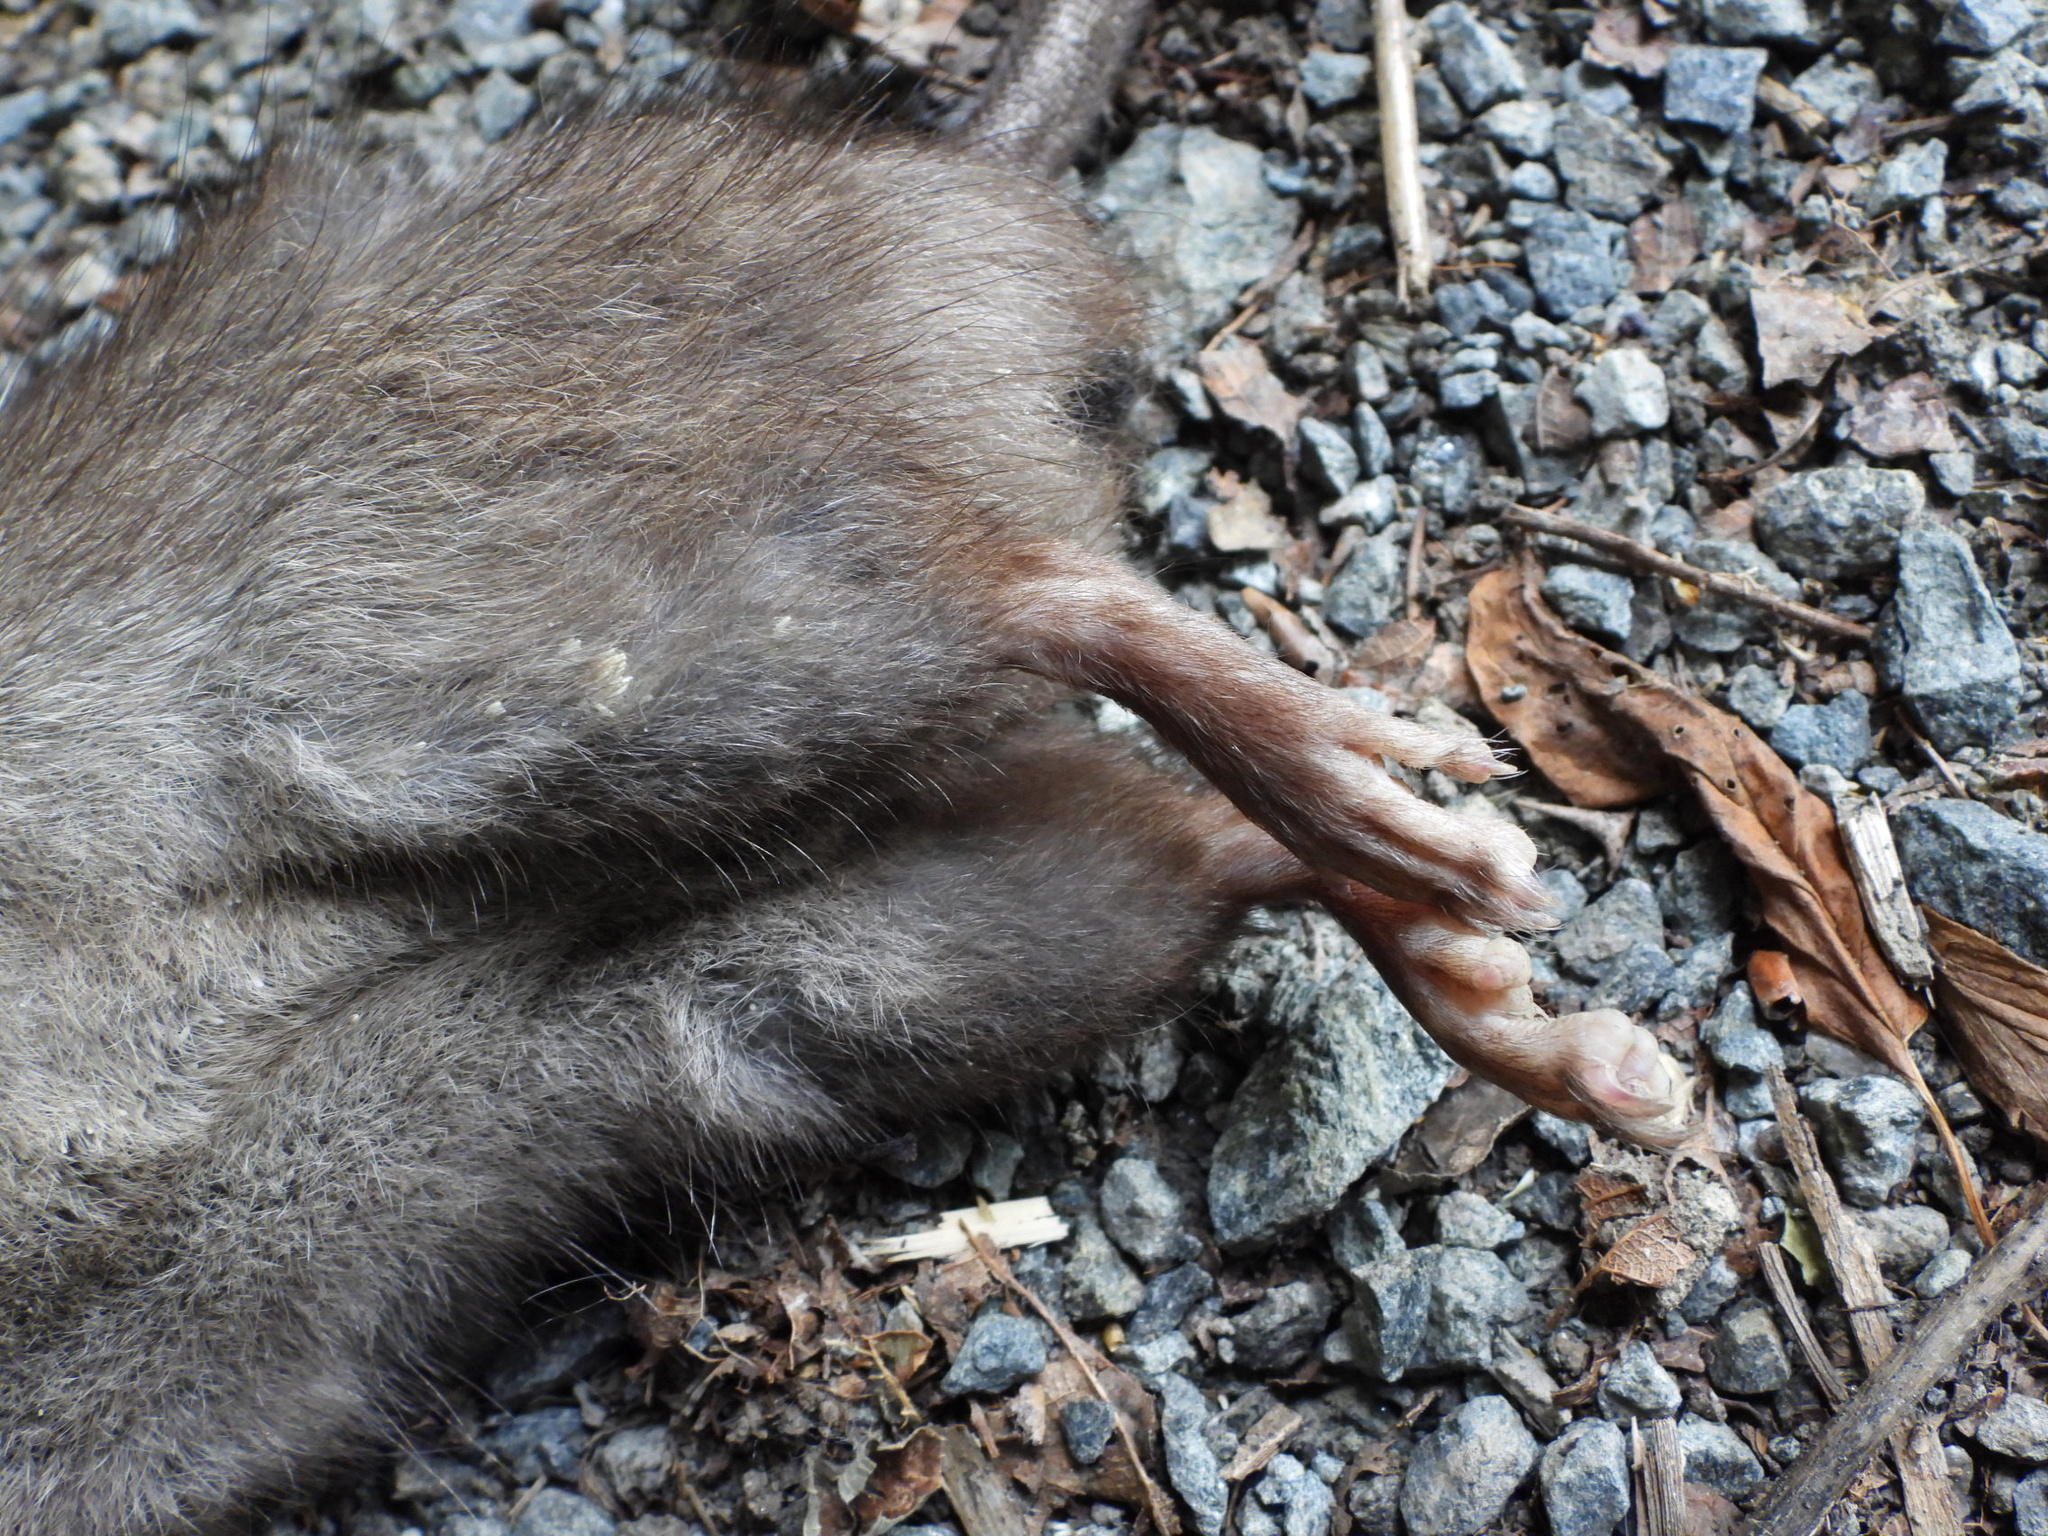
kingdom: Animalia
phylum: Chordata
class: Mammalia
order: Rodentia
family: Muridae
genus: Rattus
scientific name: Rattus rattus
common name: Black rat
